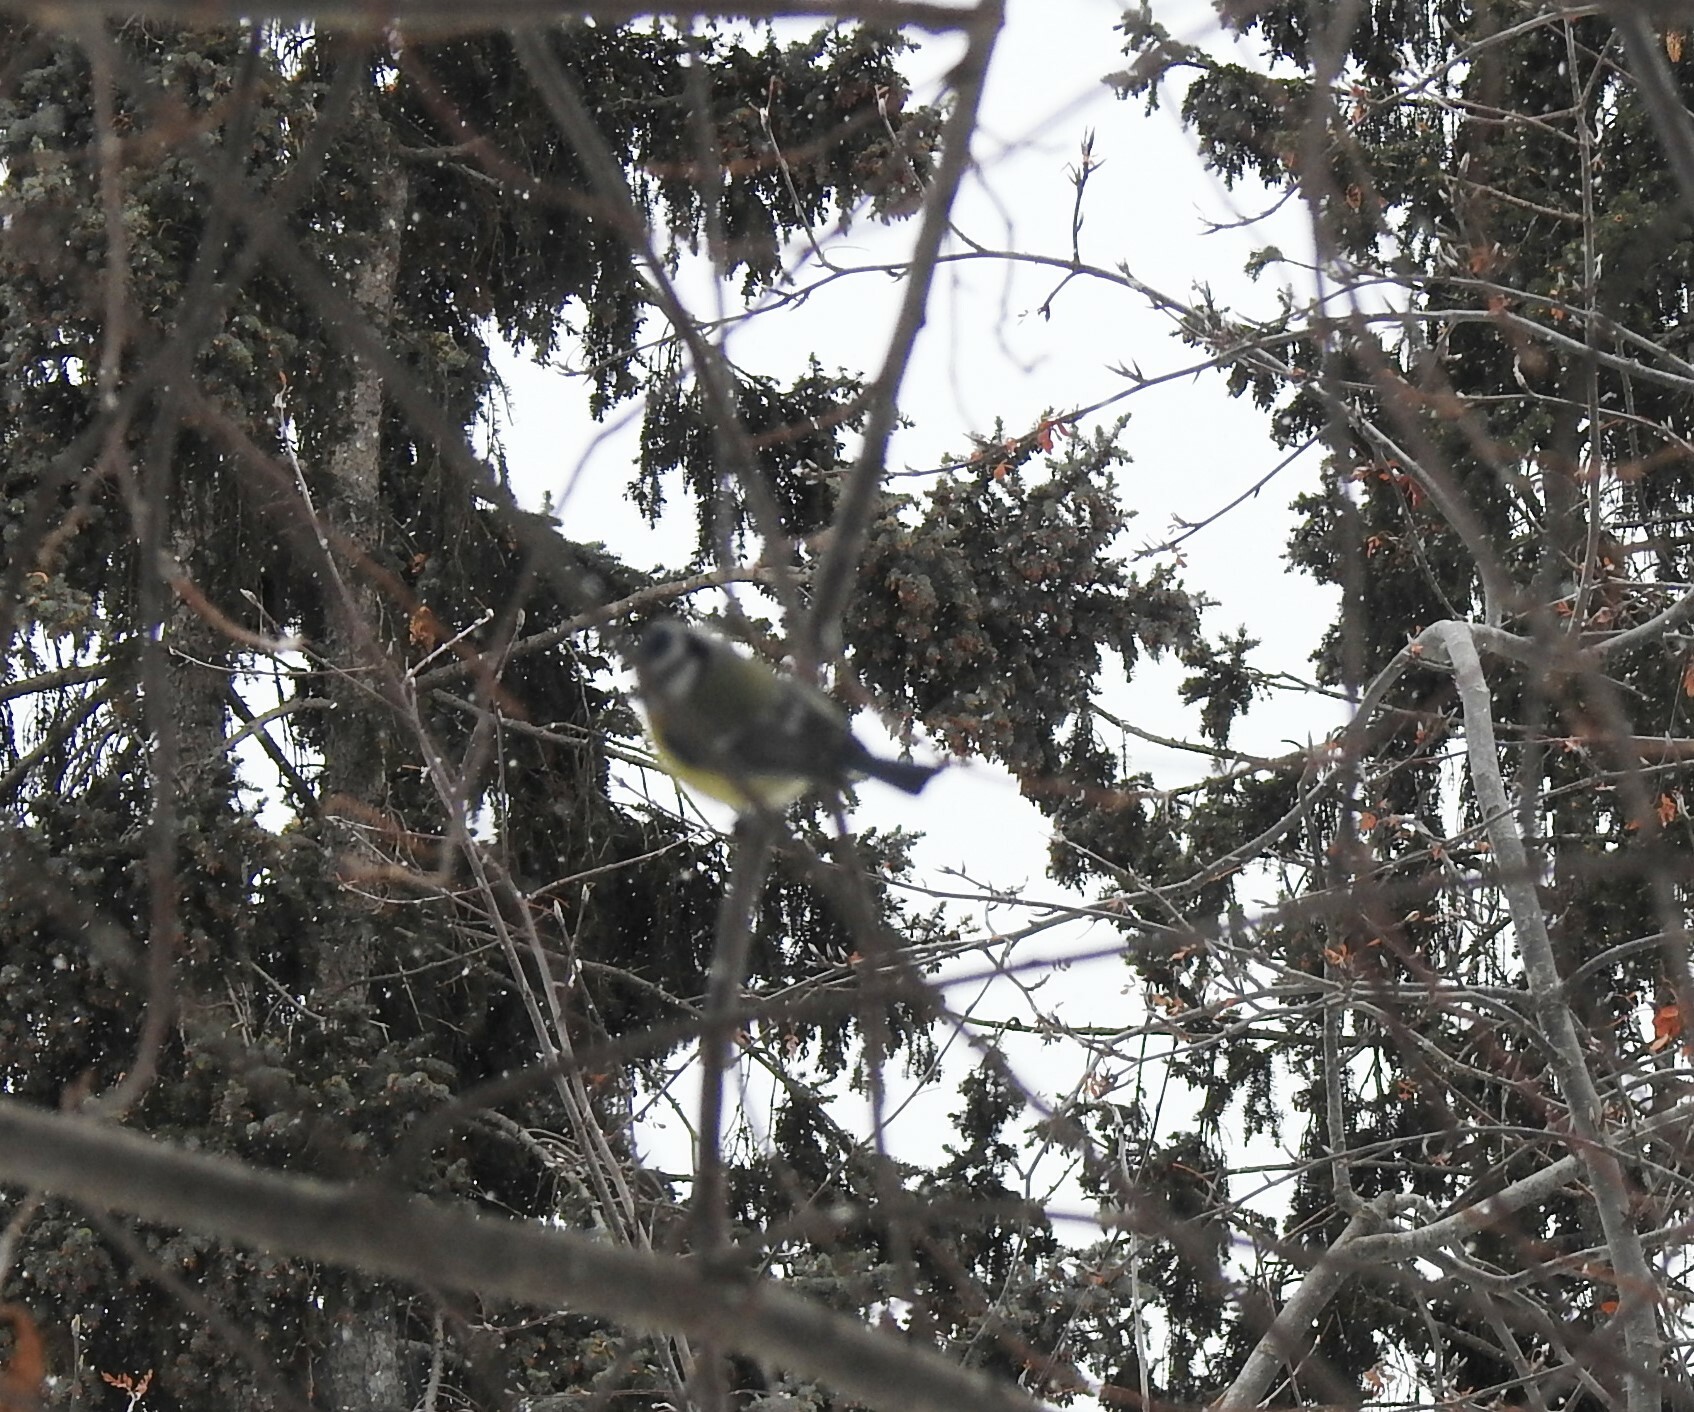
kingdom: Animalia
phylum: Chordata
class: Aves
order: Passeriformes
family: Paridae
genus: Cyanistes
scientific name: Cyanistes caeruleus
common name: Eurasian blue tit
